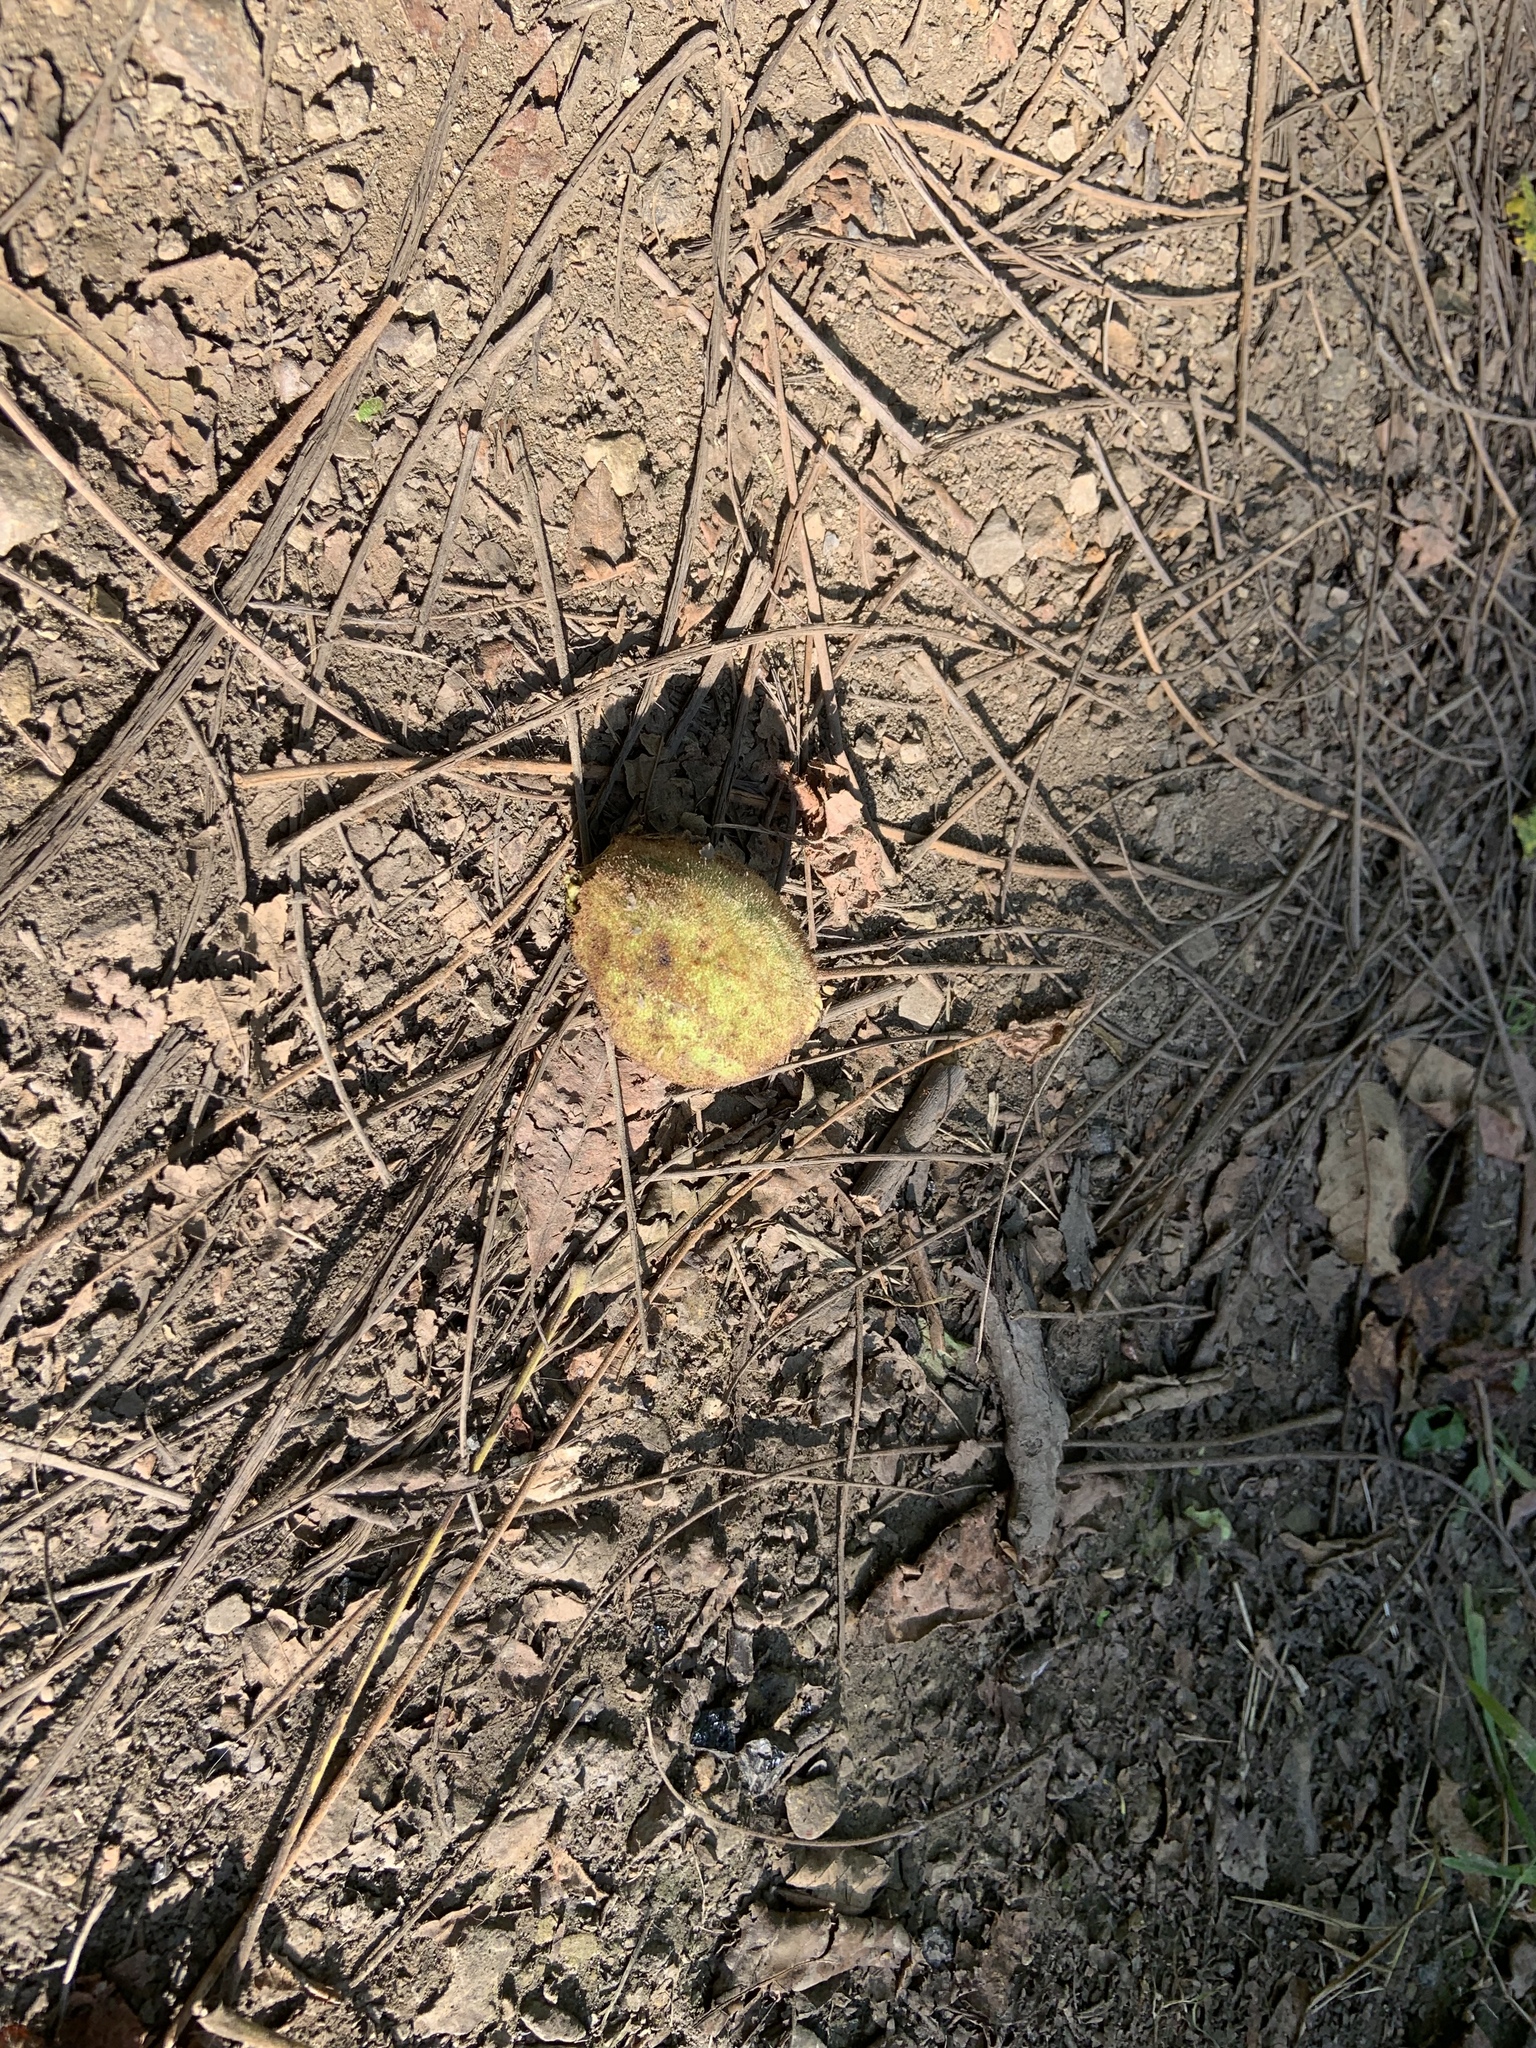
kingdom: Plantae
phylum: Tracheophyta
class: Magnoliopsida
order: Fagales
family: Juglandaceae
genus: Juglans
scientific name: Juglans cinerea
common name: Butternut
